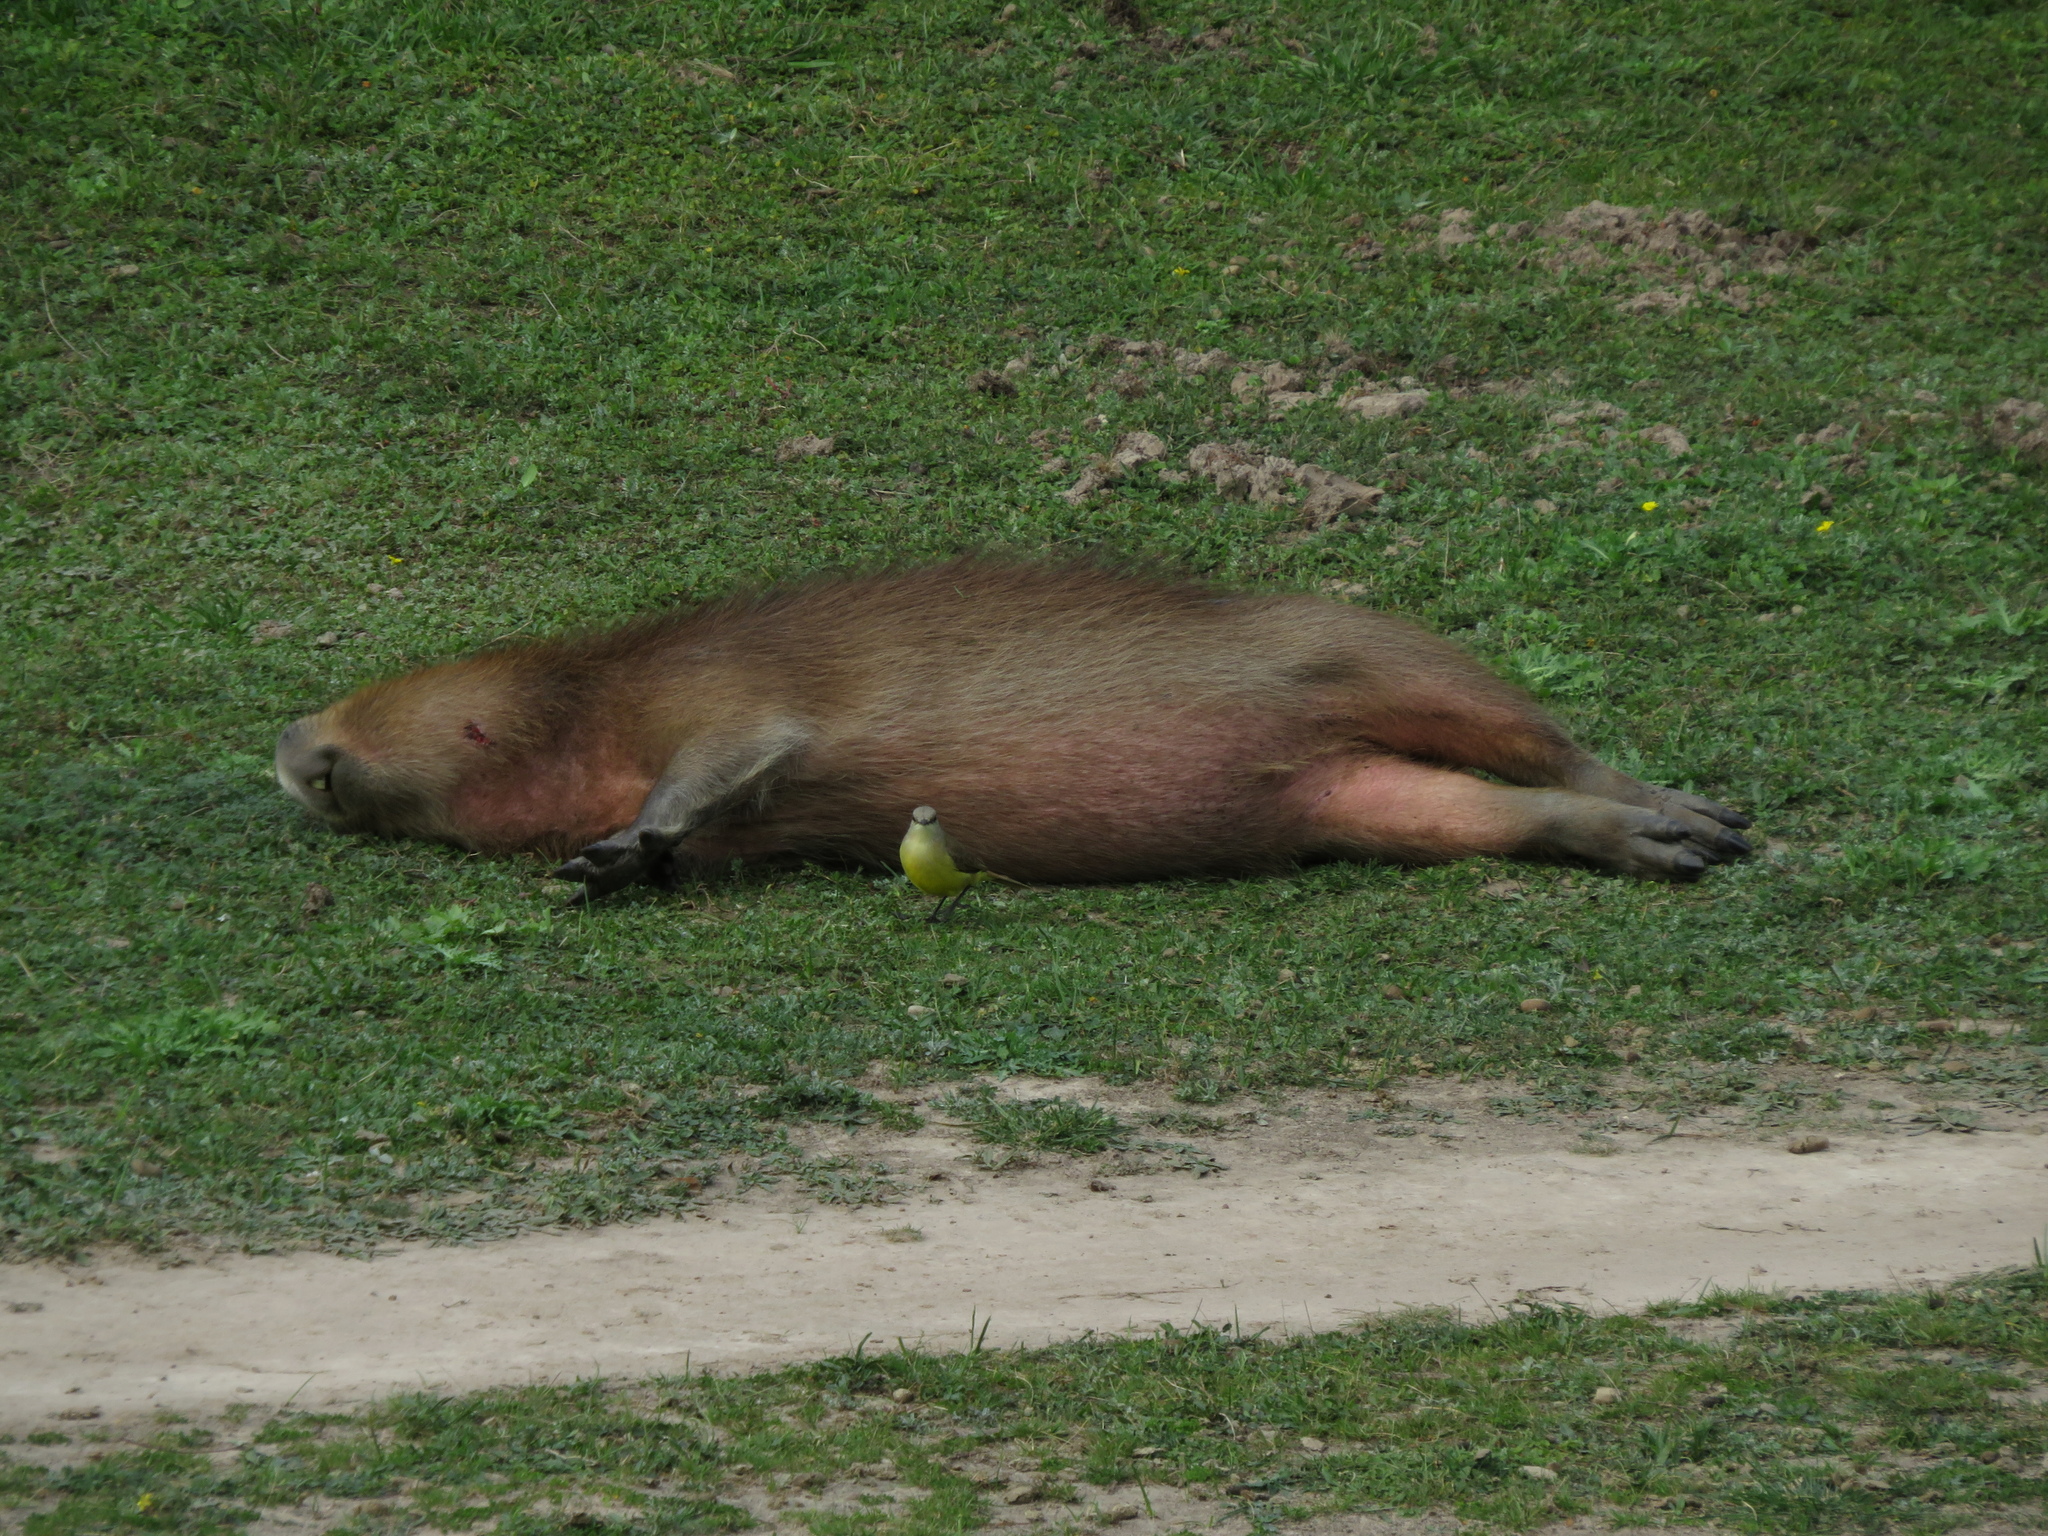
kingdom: Animalia
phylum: Chordata
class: Mammalia
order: Rodentia
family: Caviidae
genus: Hydrochoerus
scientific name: Hydrochoerus hydrochaeris
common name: Capybara
